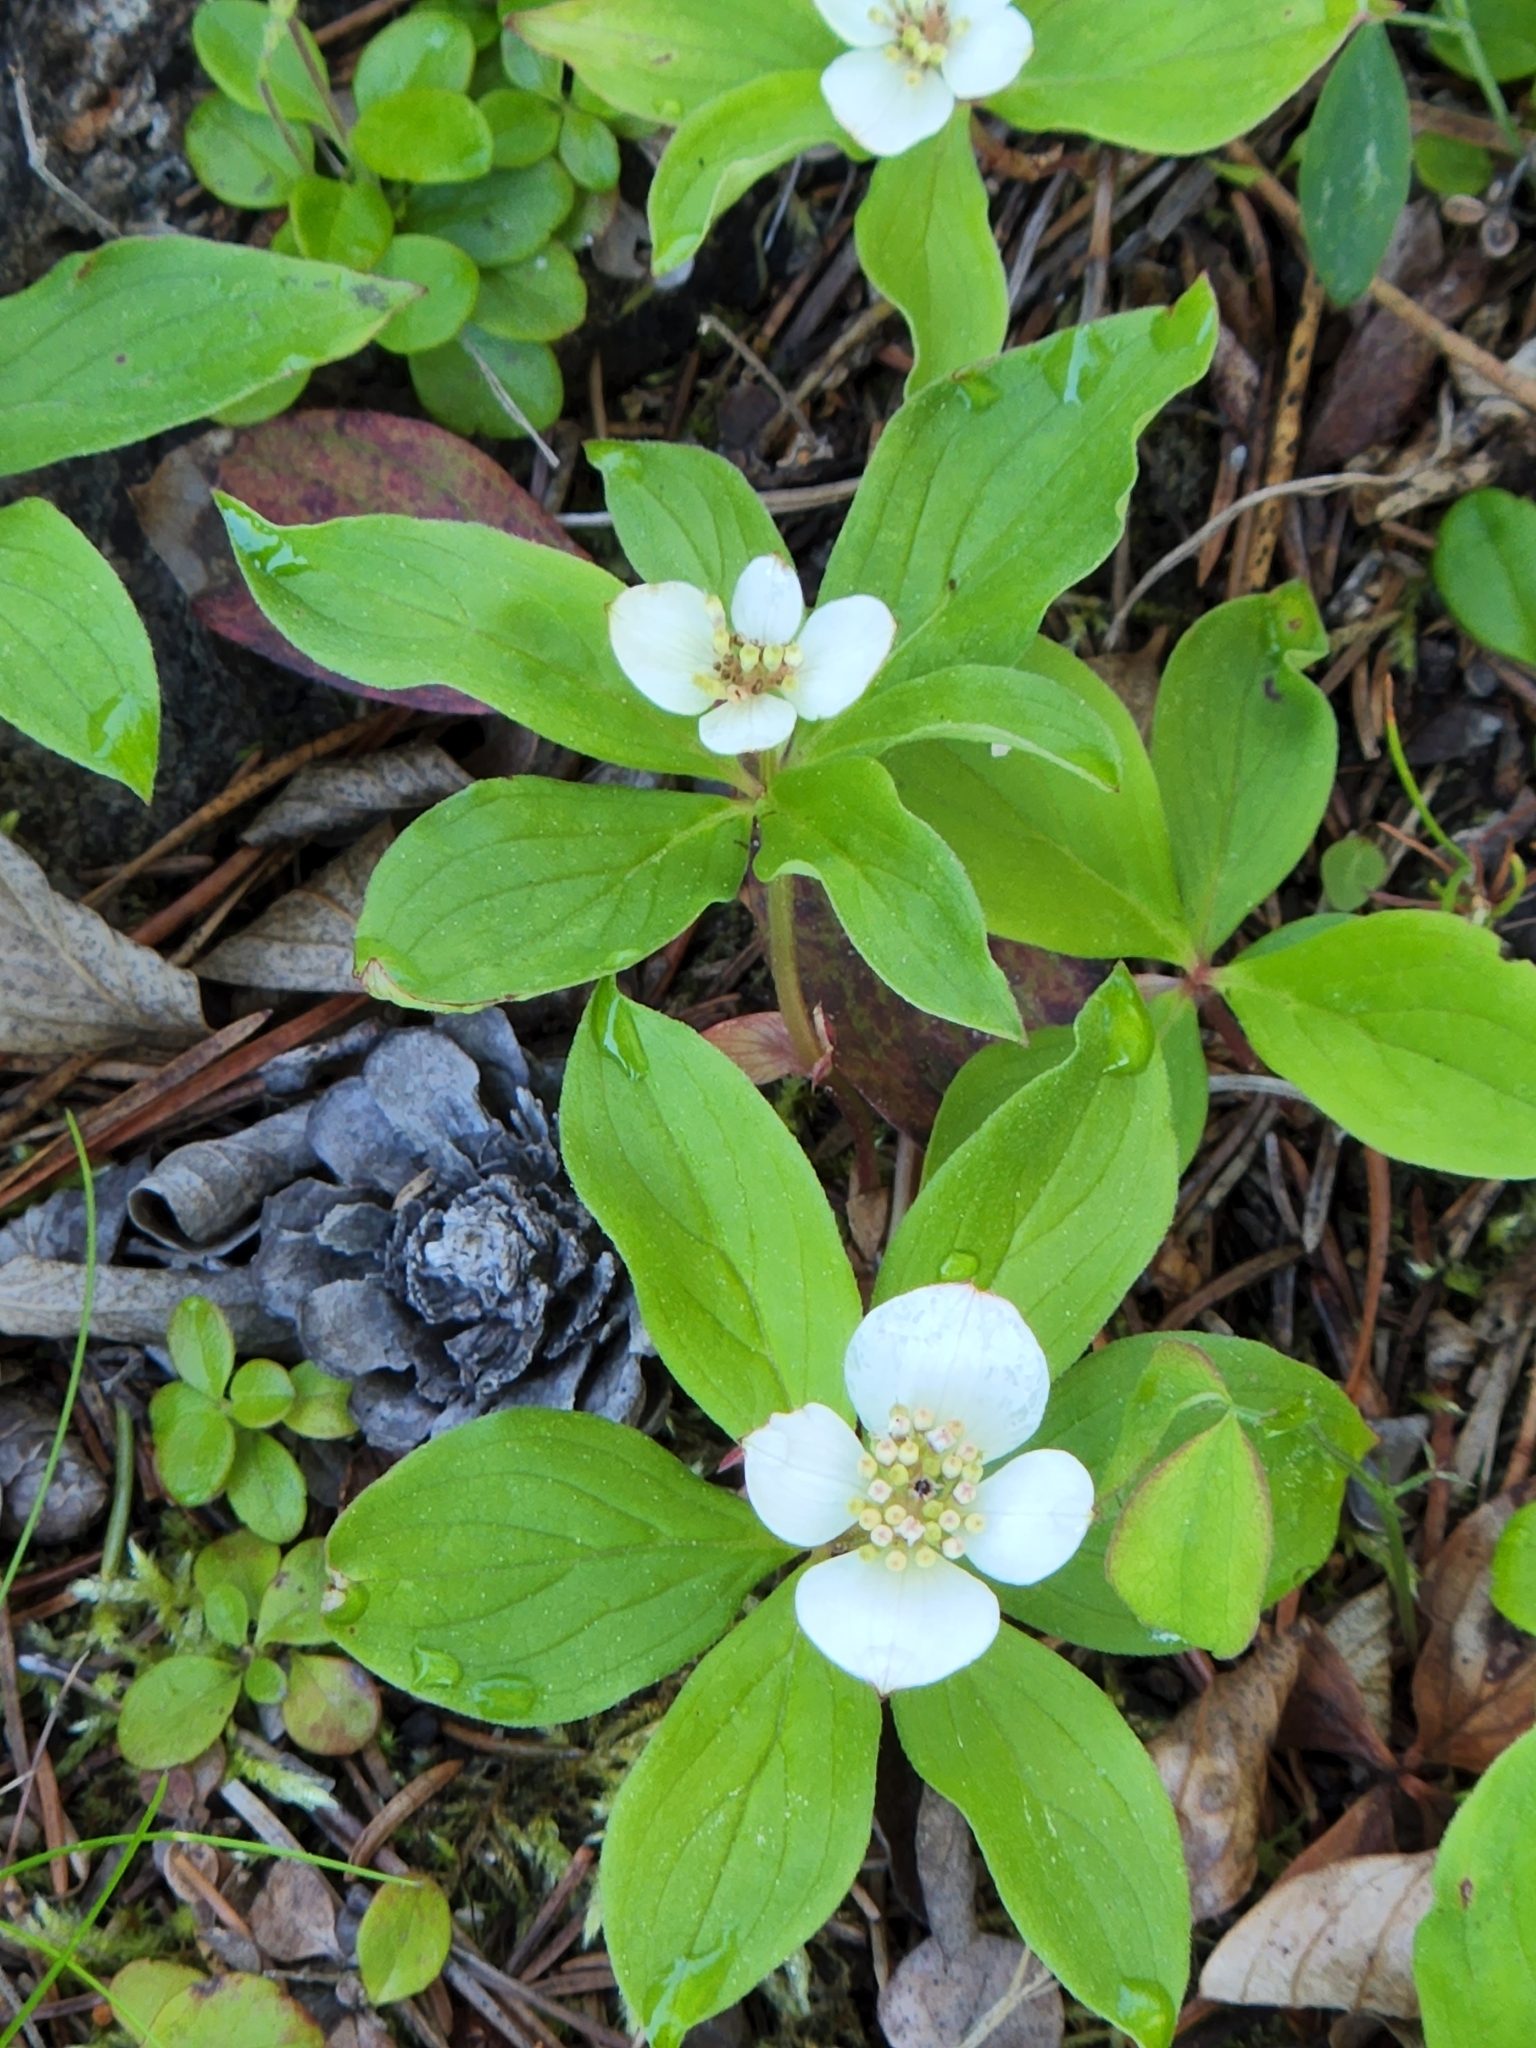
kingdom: Plantae
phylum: Tracheophyta
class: Magnoliopsida
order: Cornales
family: Cornaceae
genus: Cornus
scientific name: Cornus canadensis
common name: Creeping dogwood
